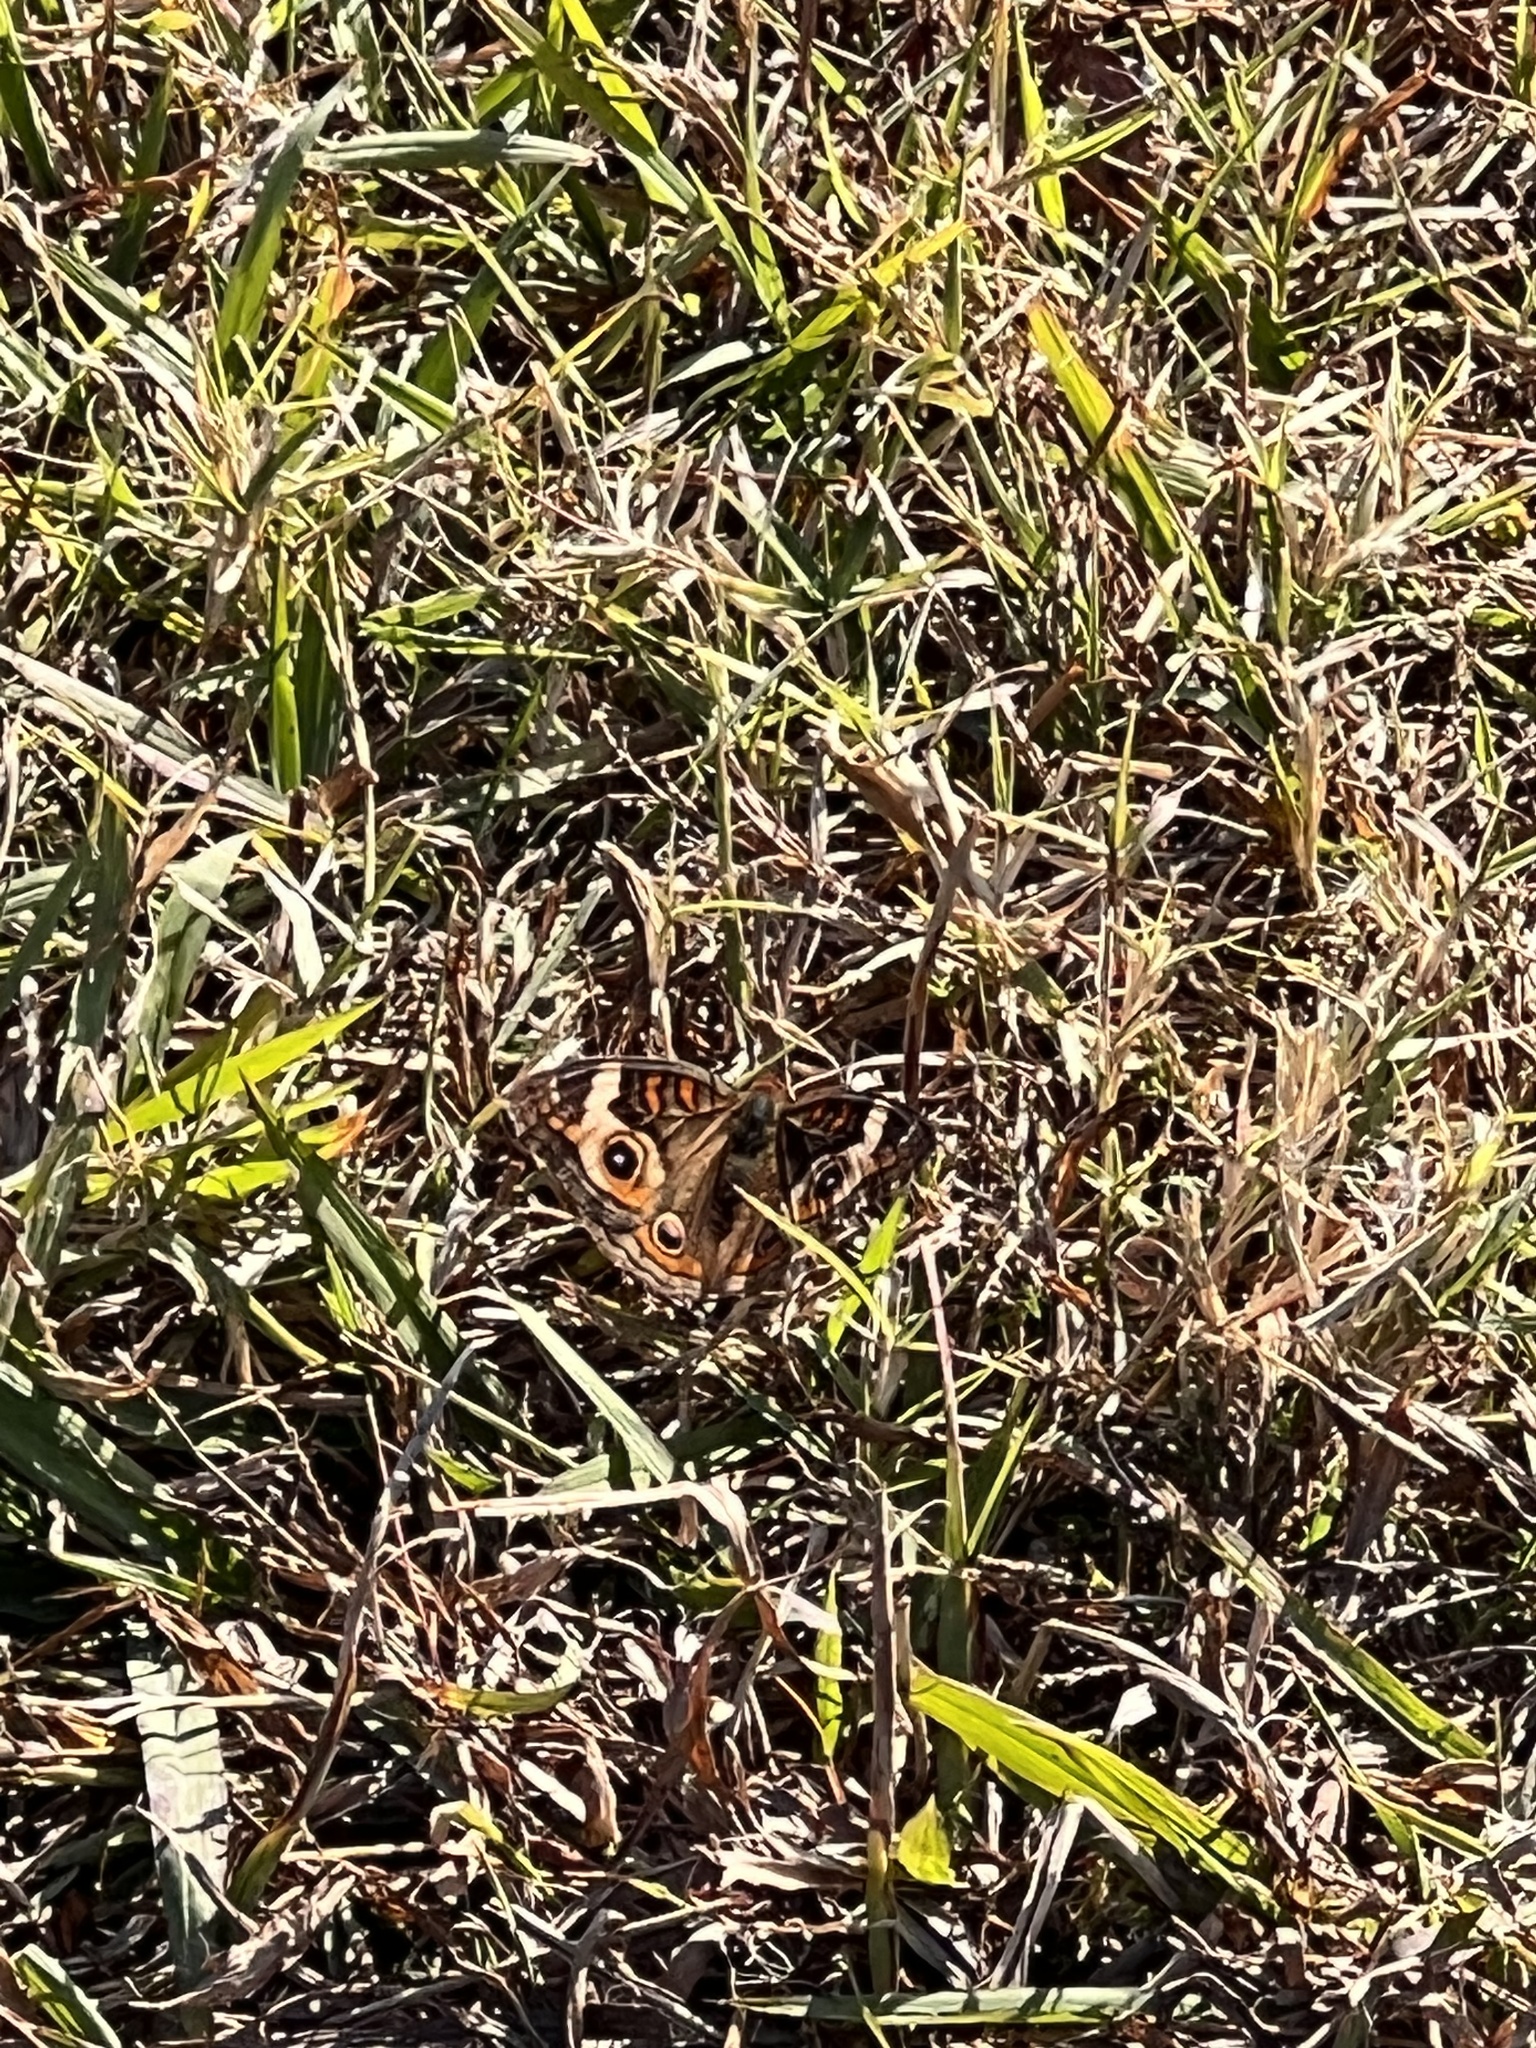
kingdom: Animalia
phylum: Arthropoda
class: Insecta
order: Lepidoptera
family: Nymphalidae
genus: Junonia
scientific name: Junonia coenia
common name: Common buckeye
